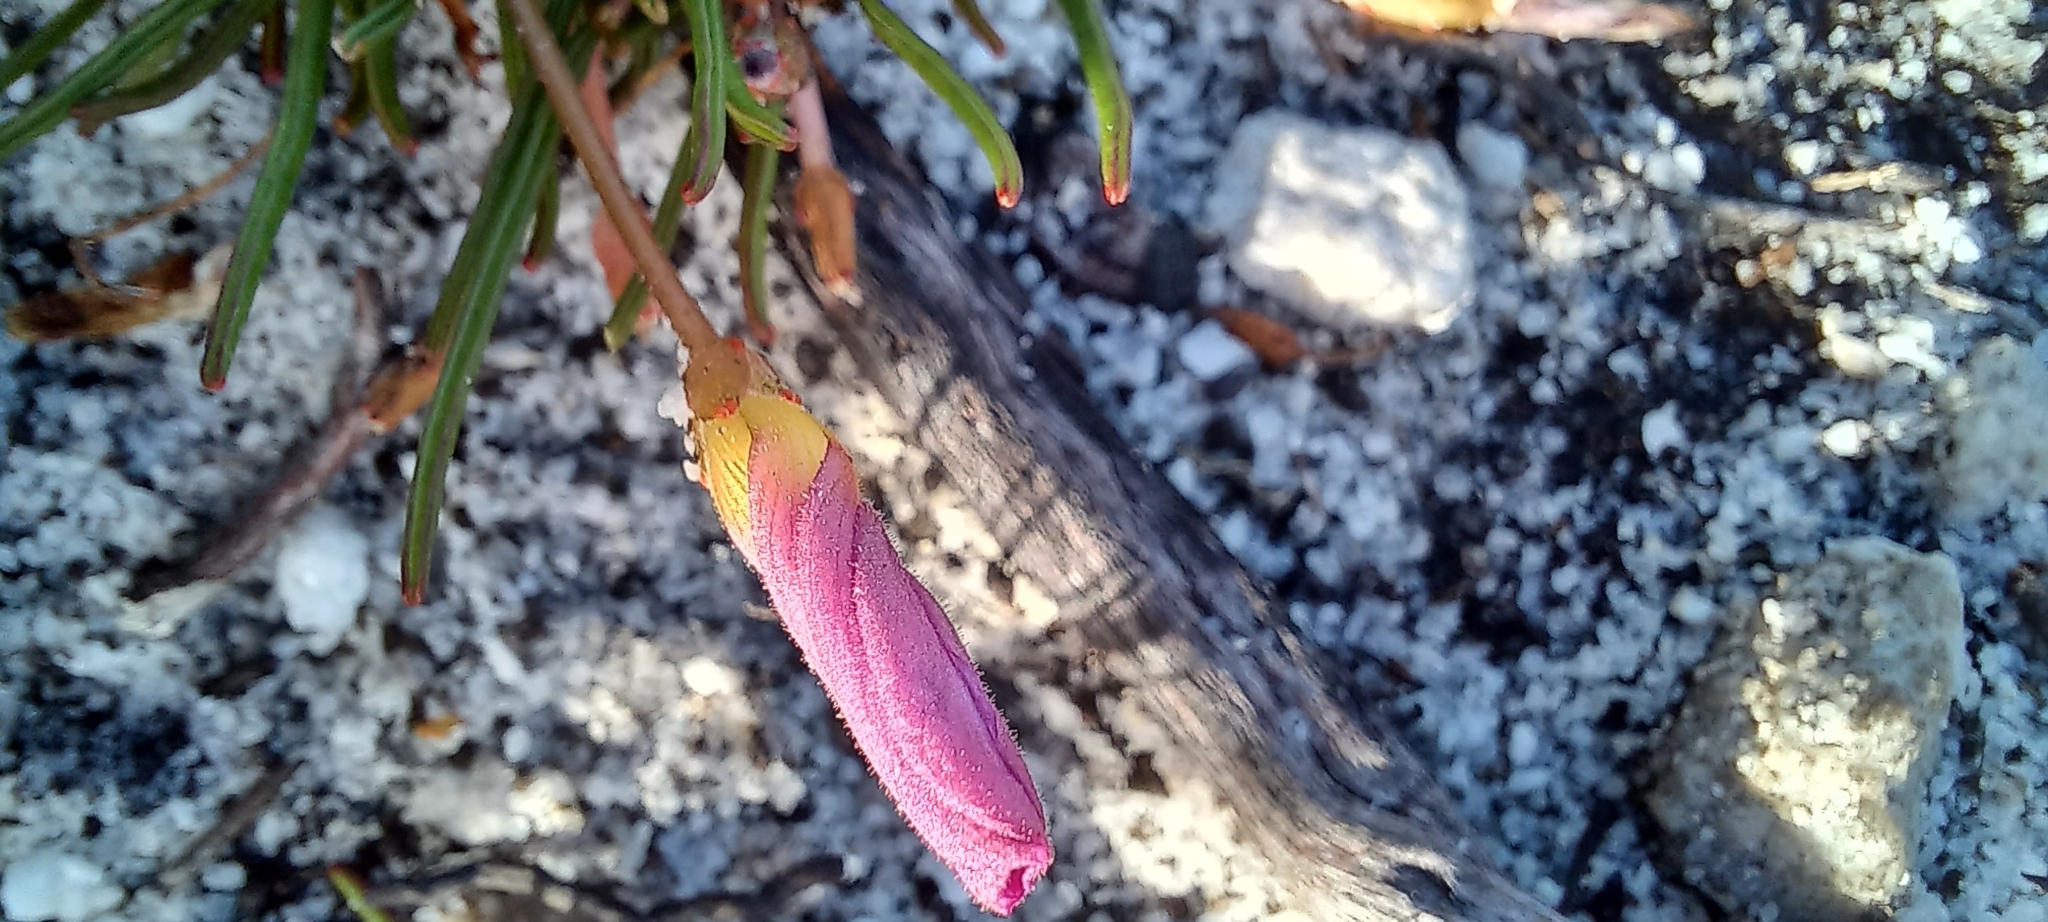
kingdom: Plantae
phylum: Tracheophyta
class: Magnoliopsida
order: Oxalidales
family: Oxalidaceae
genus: Oxalis
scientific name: Oxalis polyphylla
